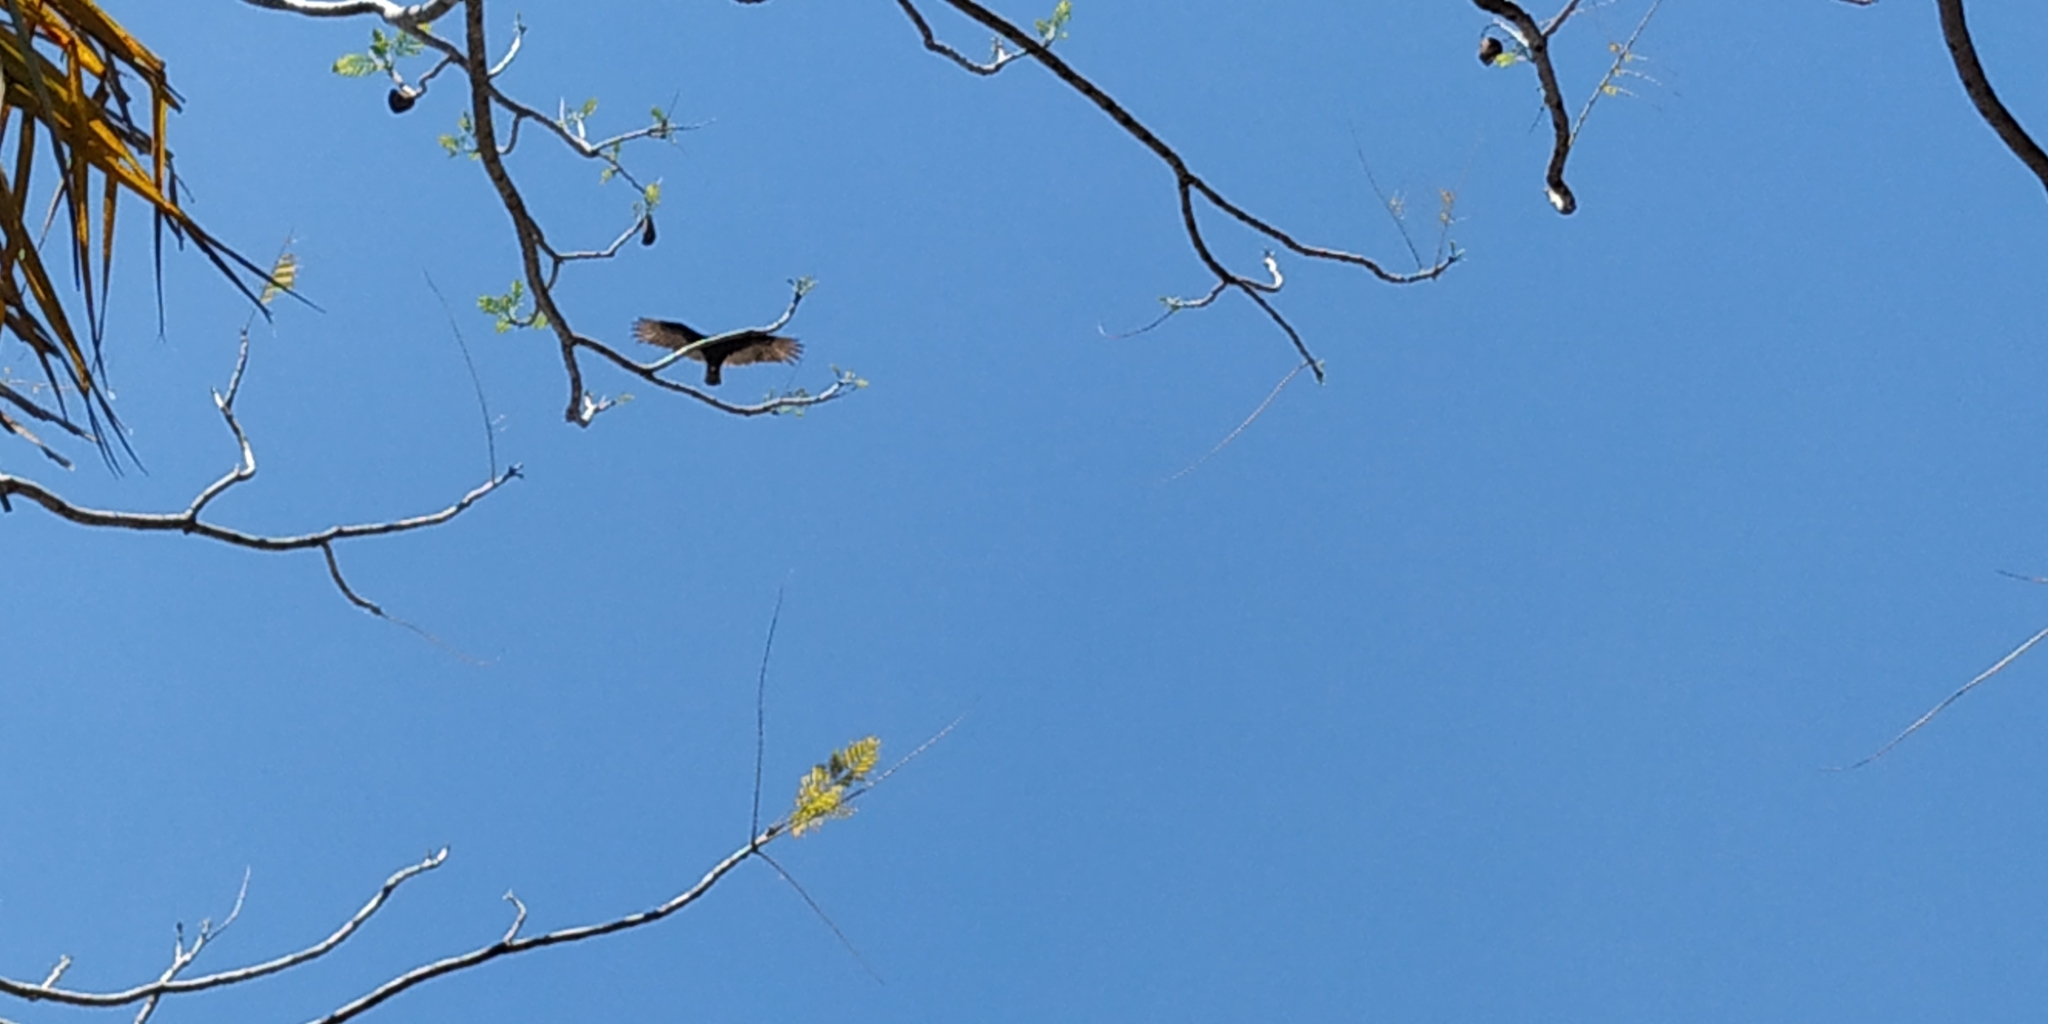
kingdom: Animalia
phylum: Chordata
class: Aves
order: Accipitriformes
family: Cathartidae
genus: Cathartes
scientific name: Cathartes aura
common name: Turkey vulture
